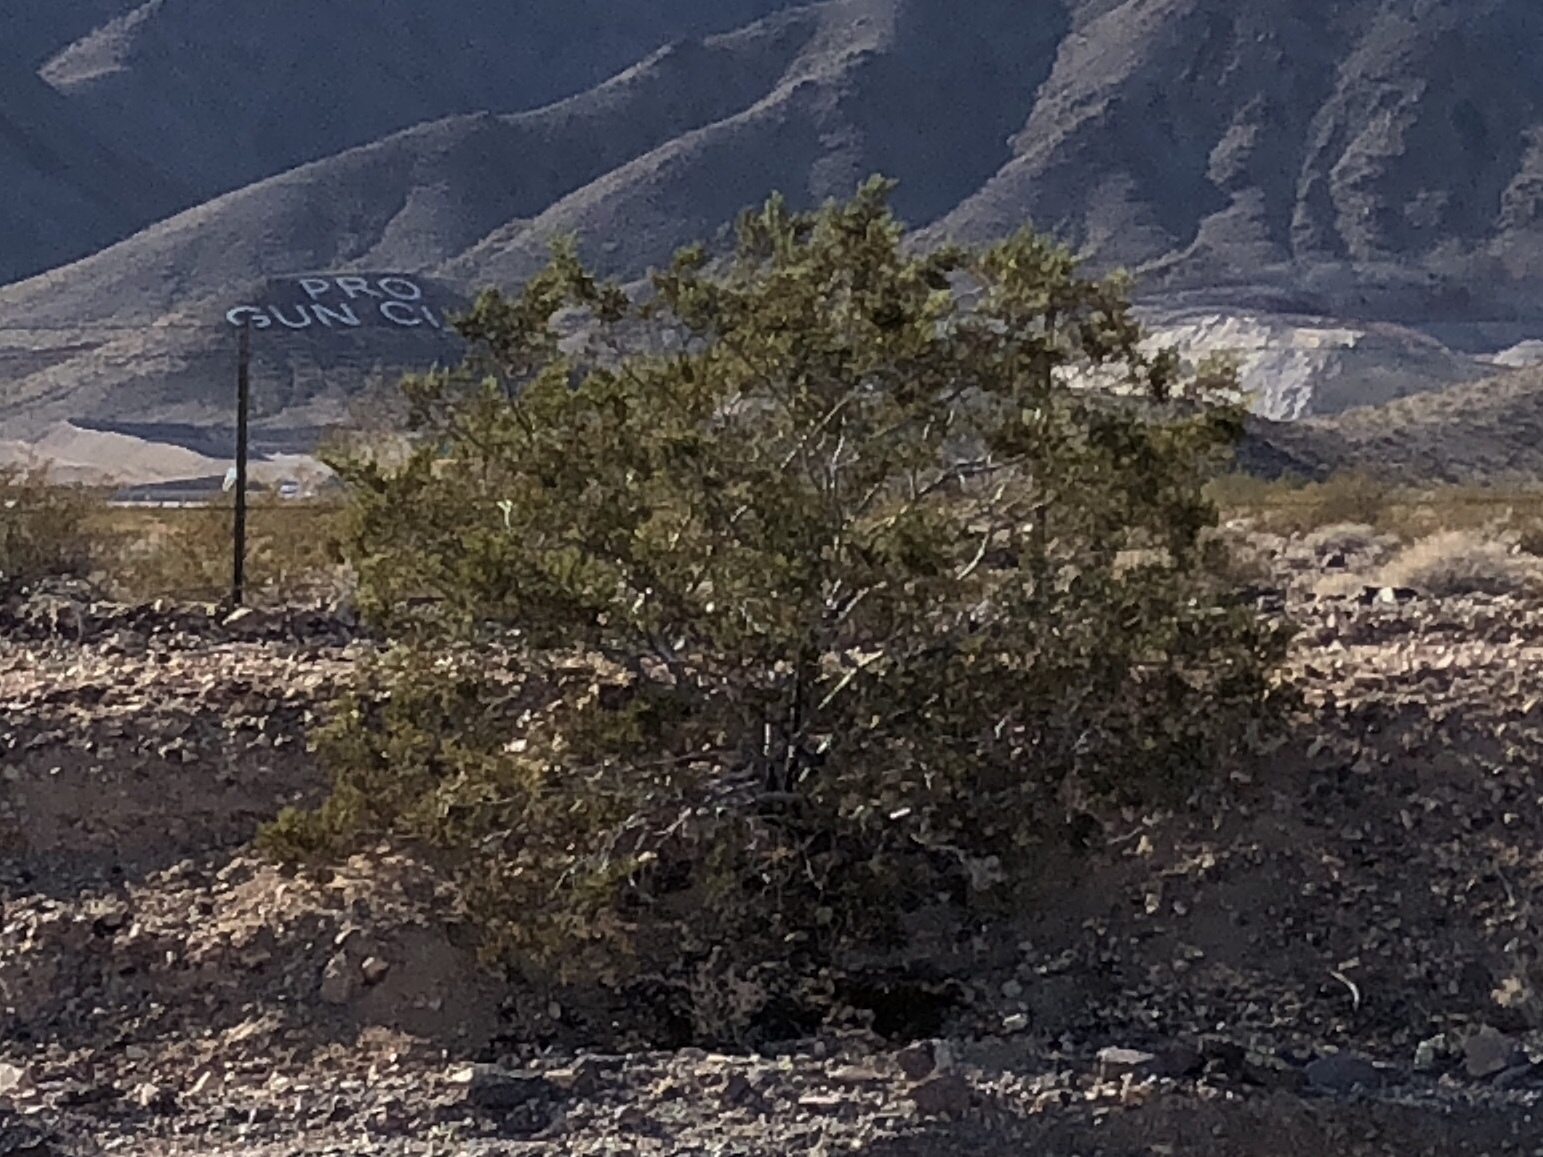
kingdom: Plantae
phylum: Tracheophyta
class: Magnoliopsida
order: Zygophyllales
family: Zygophyllaceae
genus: Larrea
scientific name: Larrea tridentata
